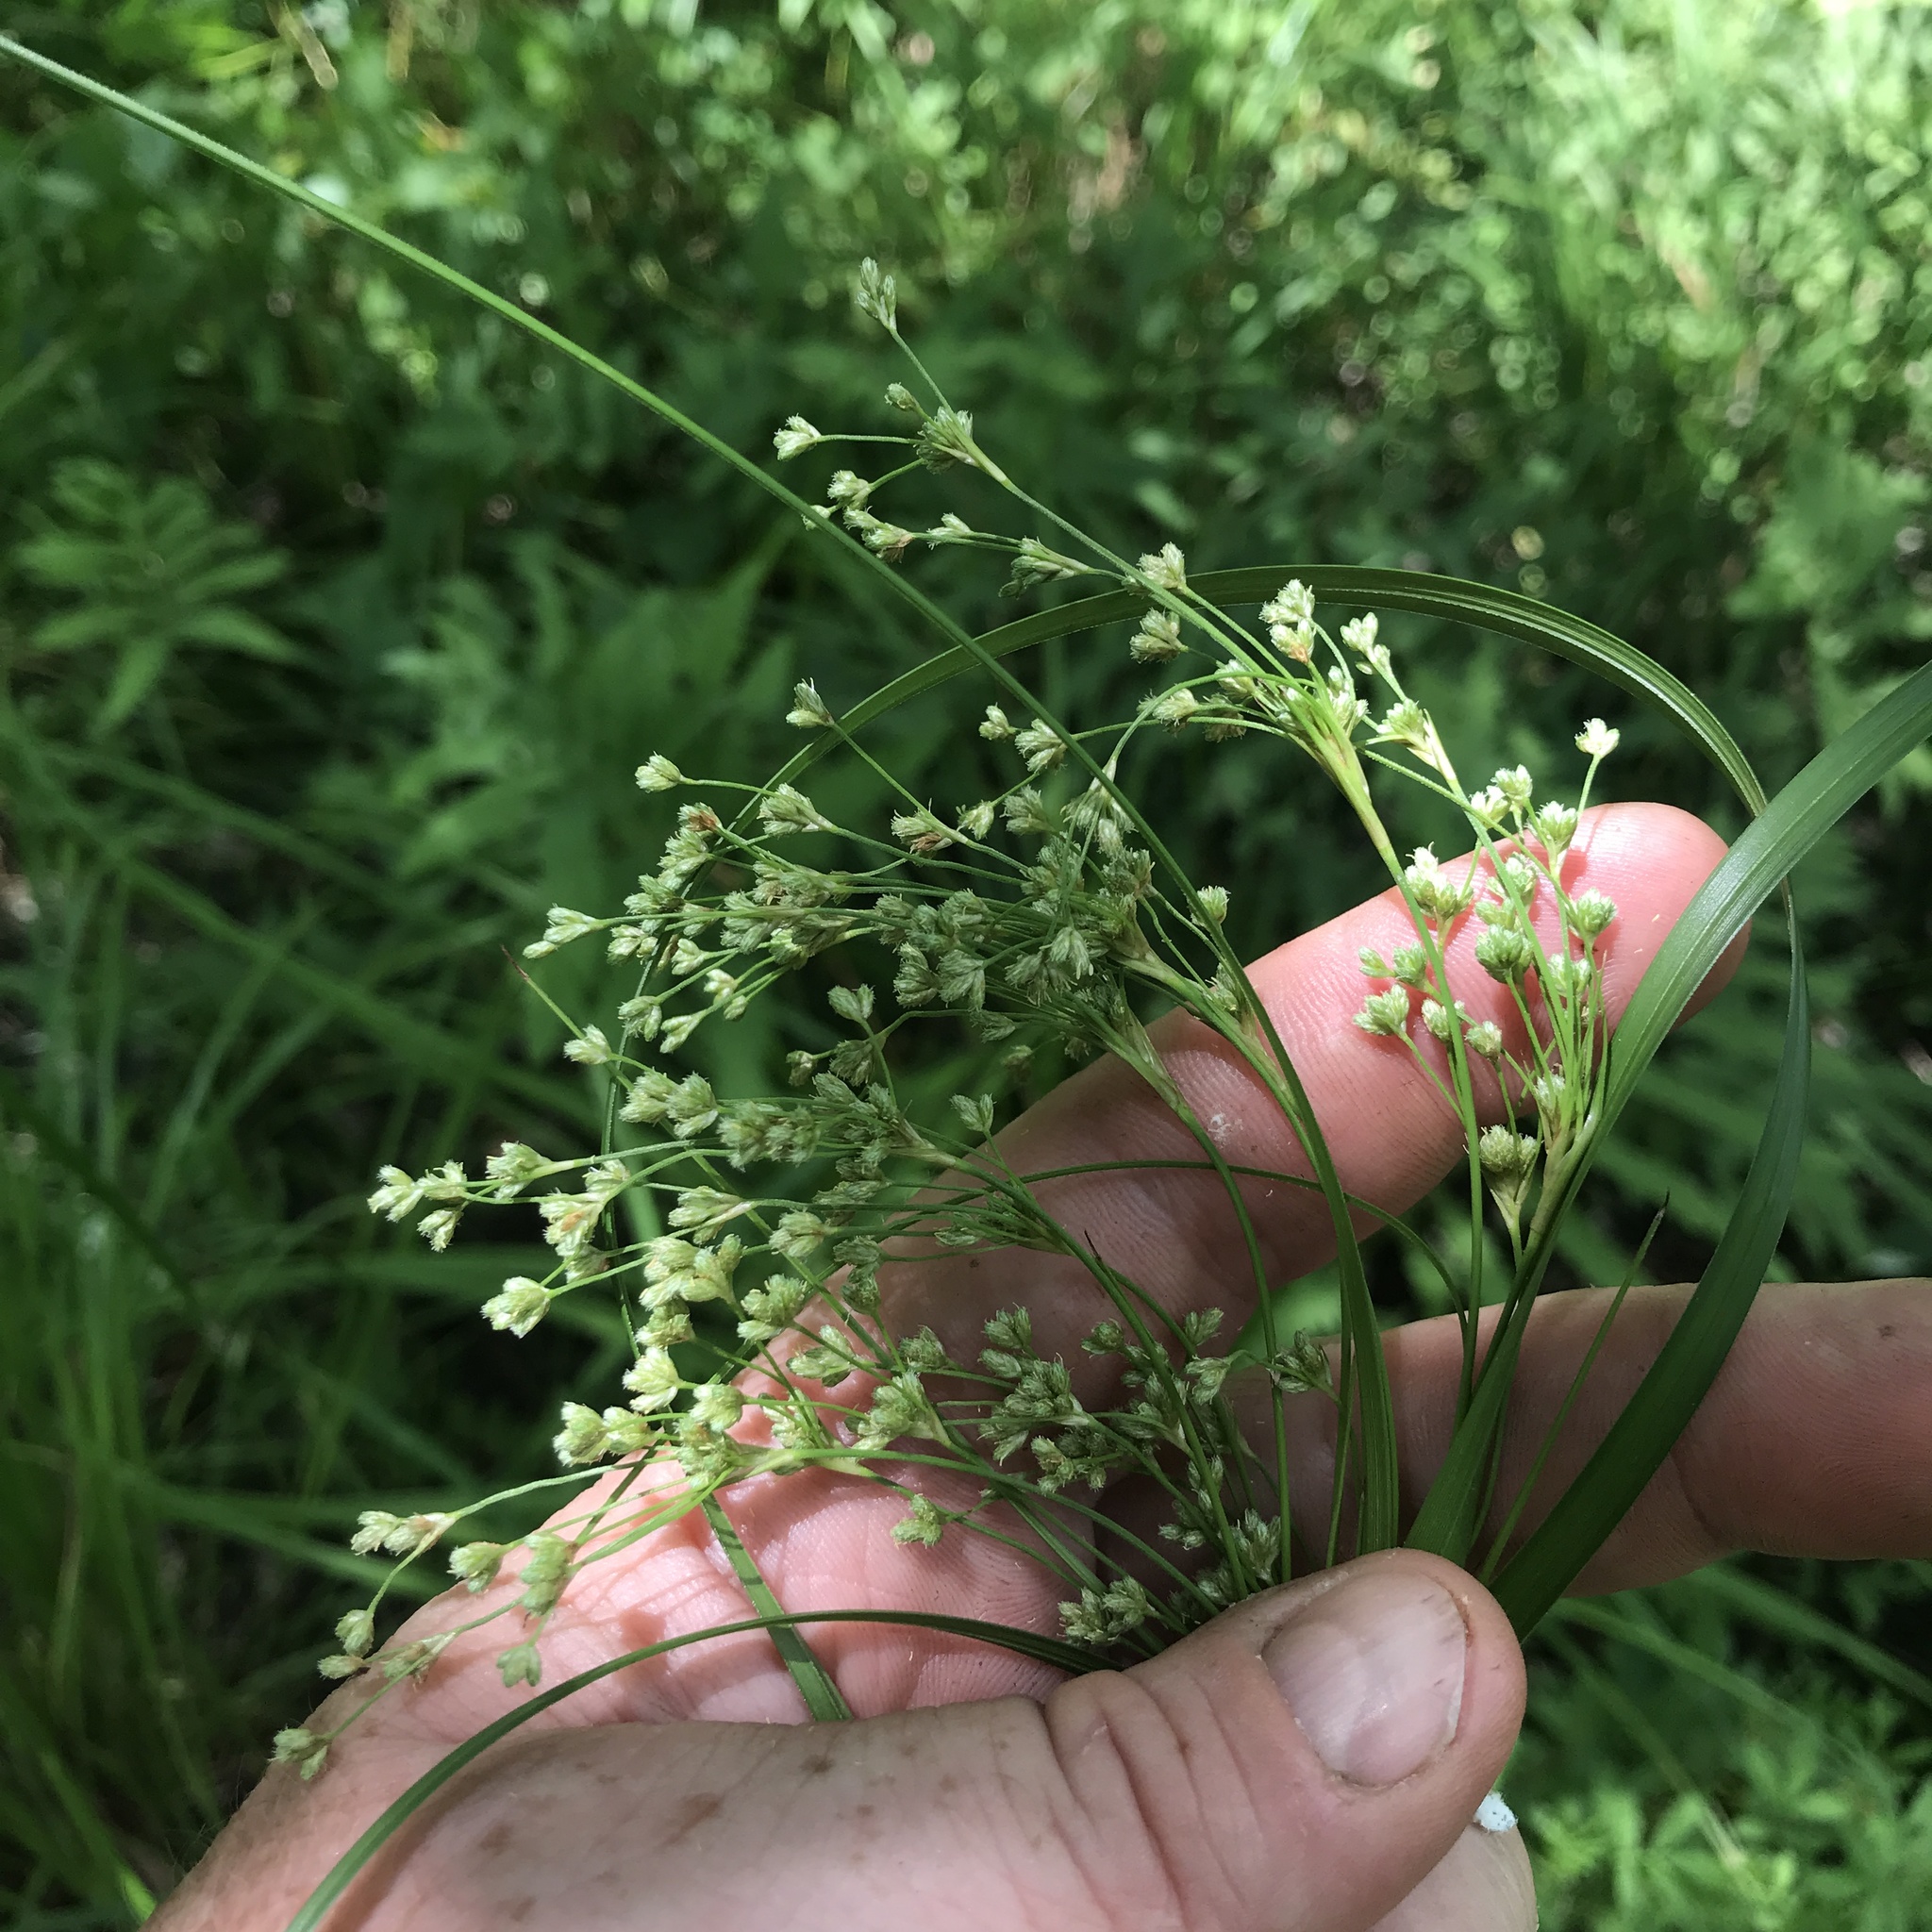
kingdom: Plantae
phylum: Tracheophyta
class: Liliopsida
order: Poales
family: Cyperaceae
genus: Scirpus
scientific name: Scirpus cyperinus
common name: Black-sheathed bulrush
